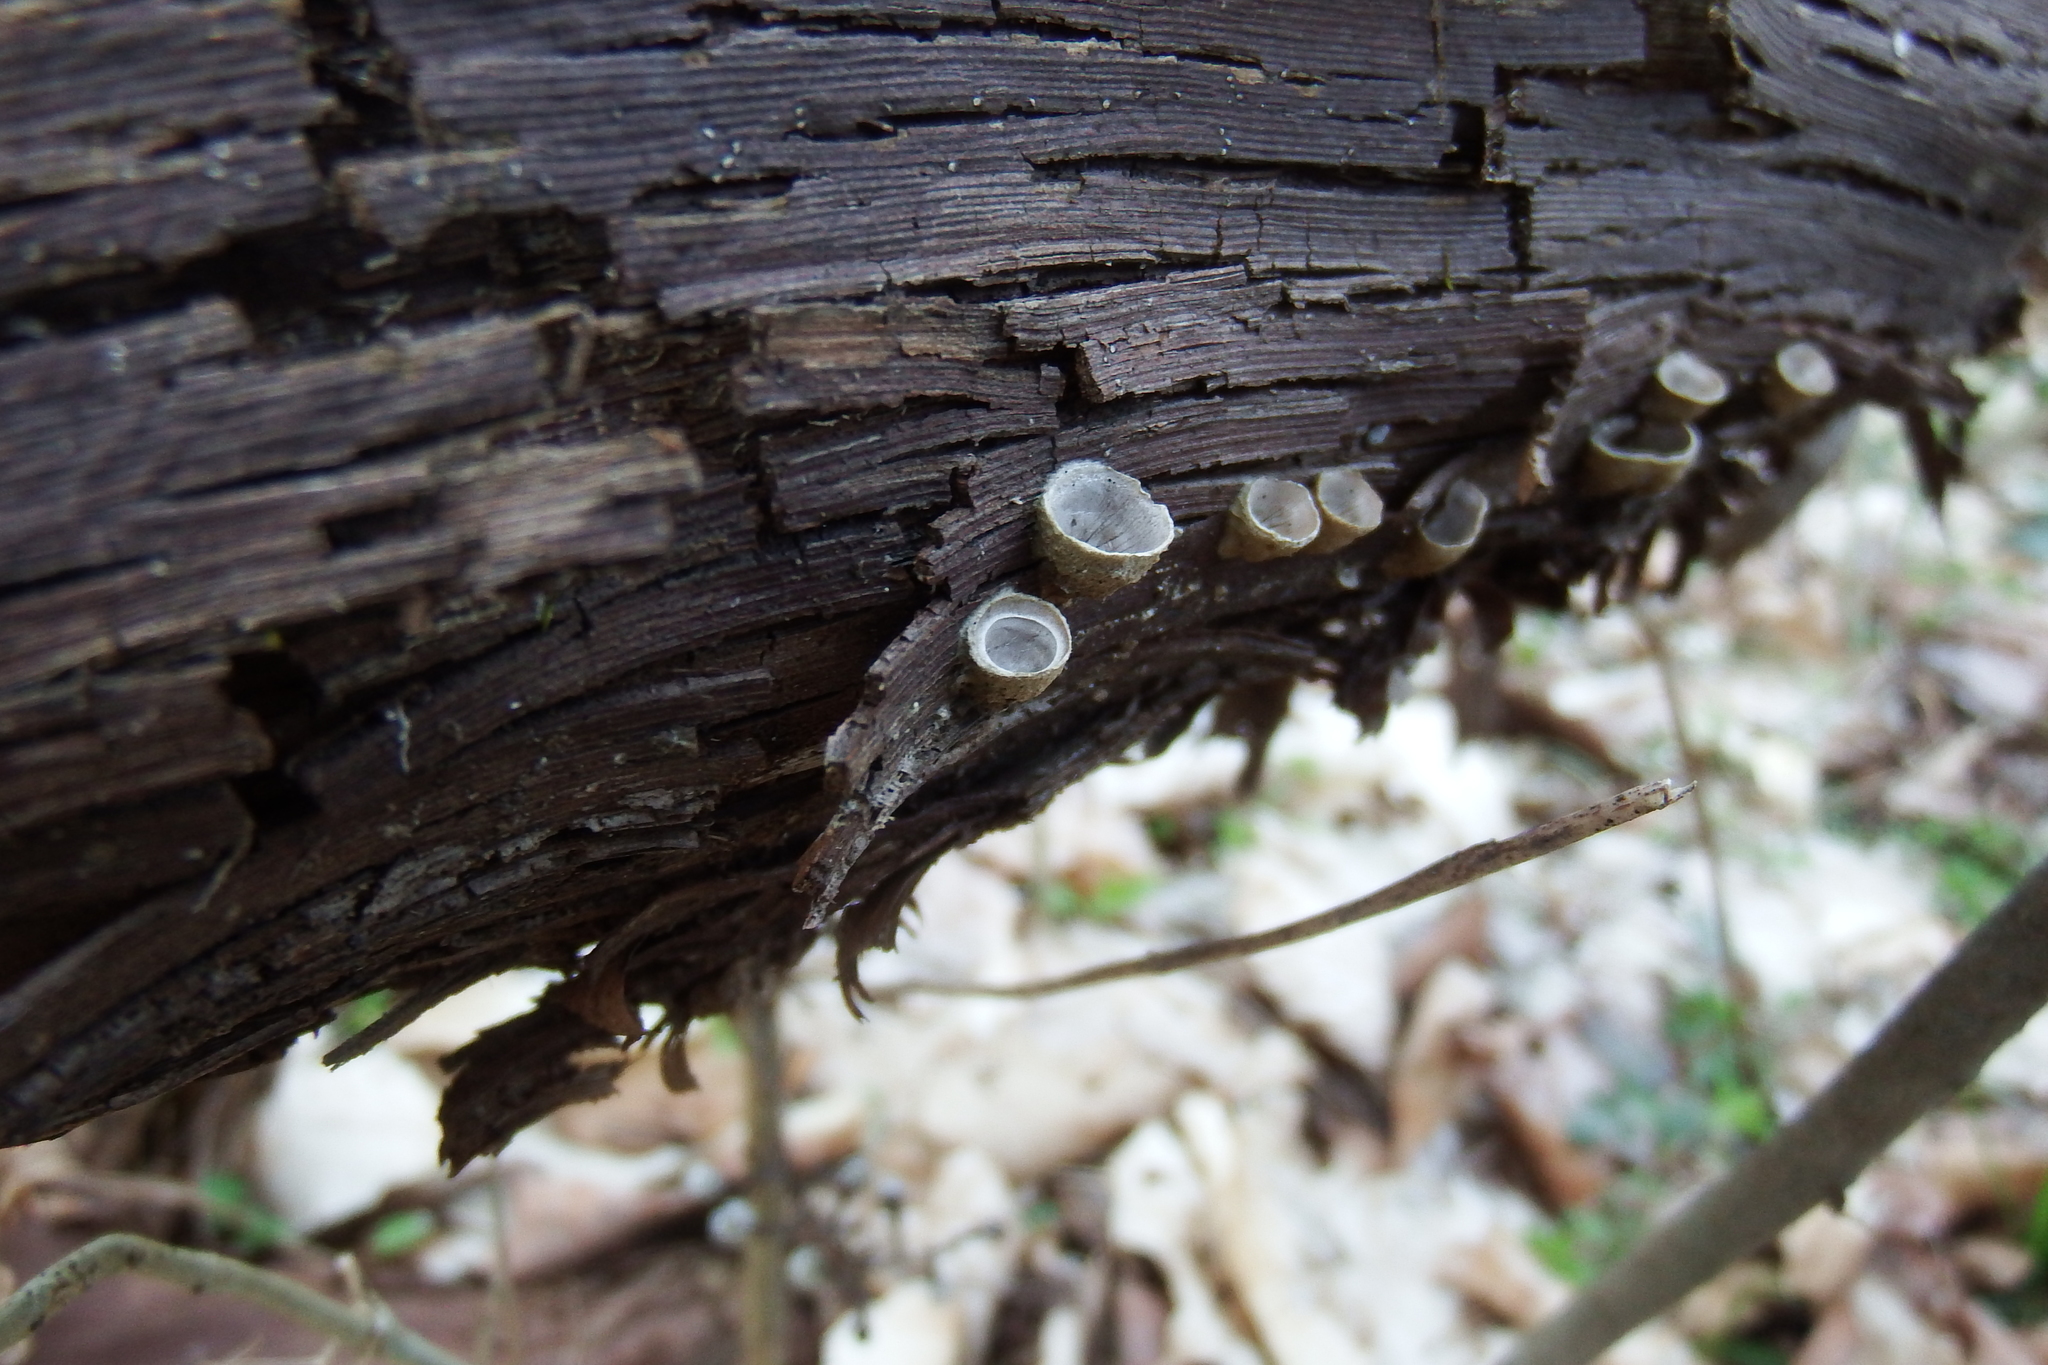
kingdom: Fungi
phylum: Basidiomycota
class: Agaricomycetes
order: Polyporales
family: Polyporaceae
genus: Poronidulus
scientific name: Poronidulus conchifer
